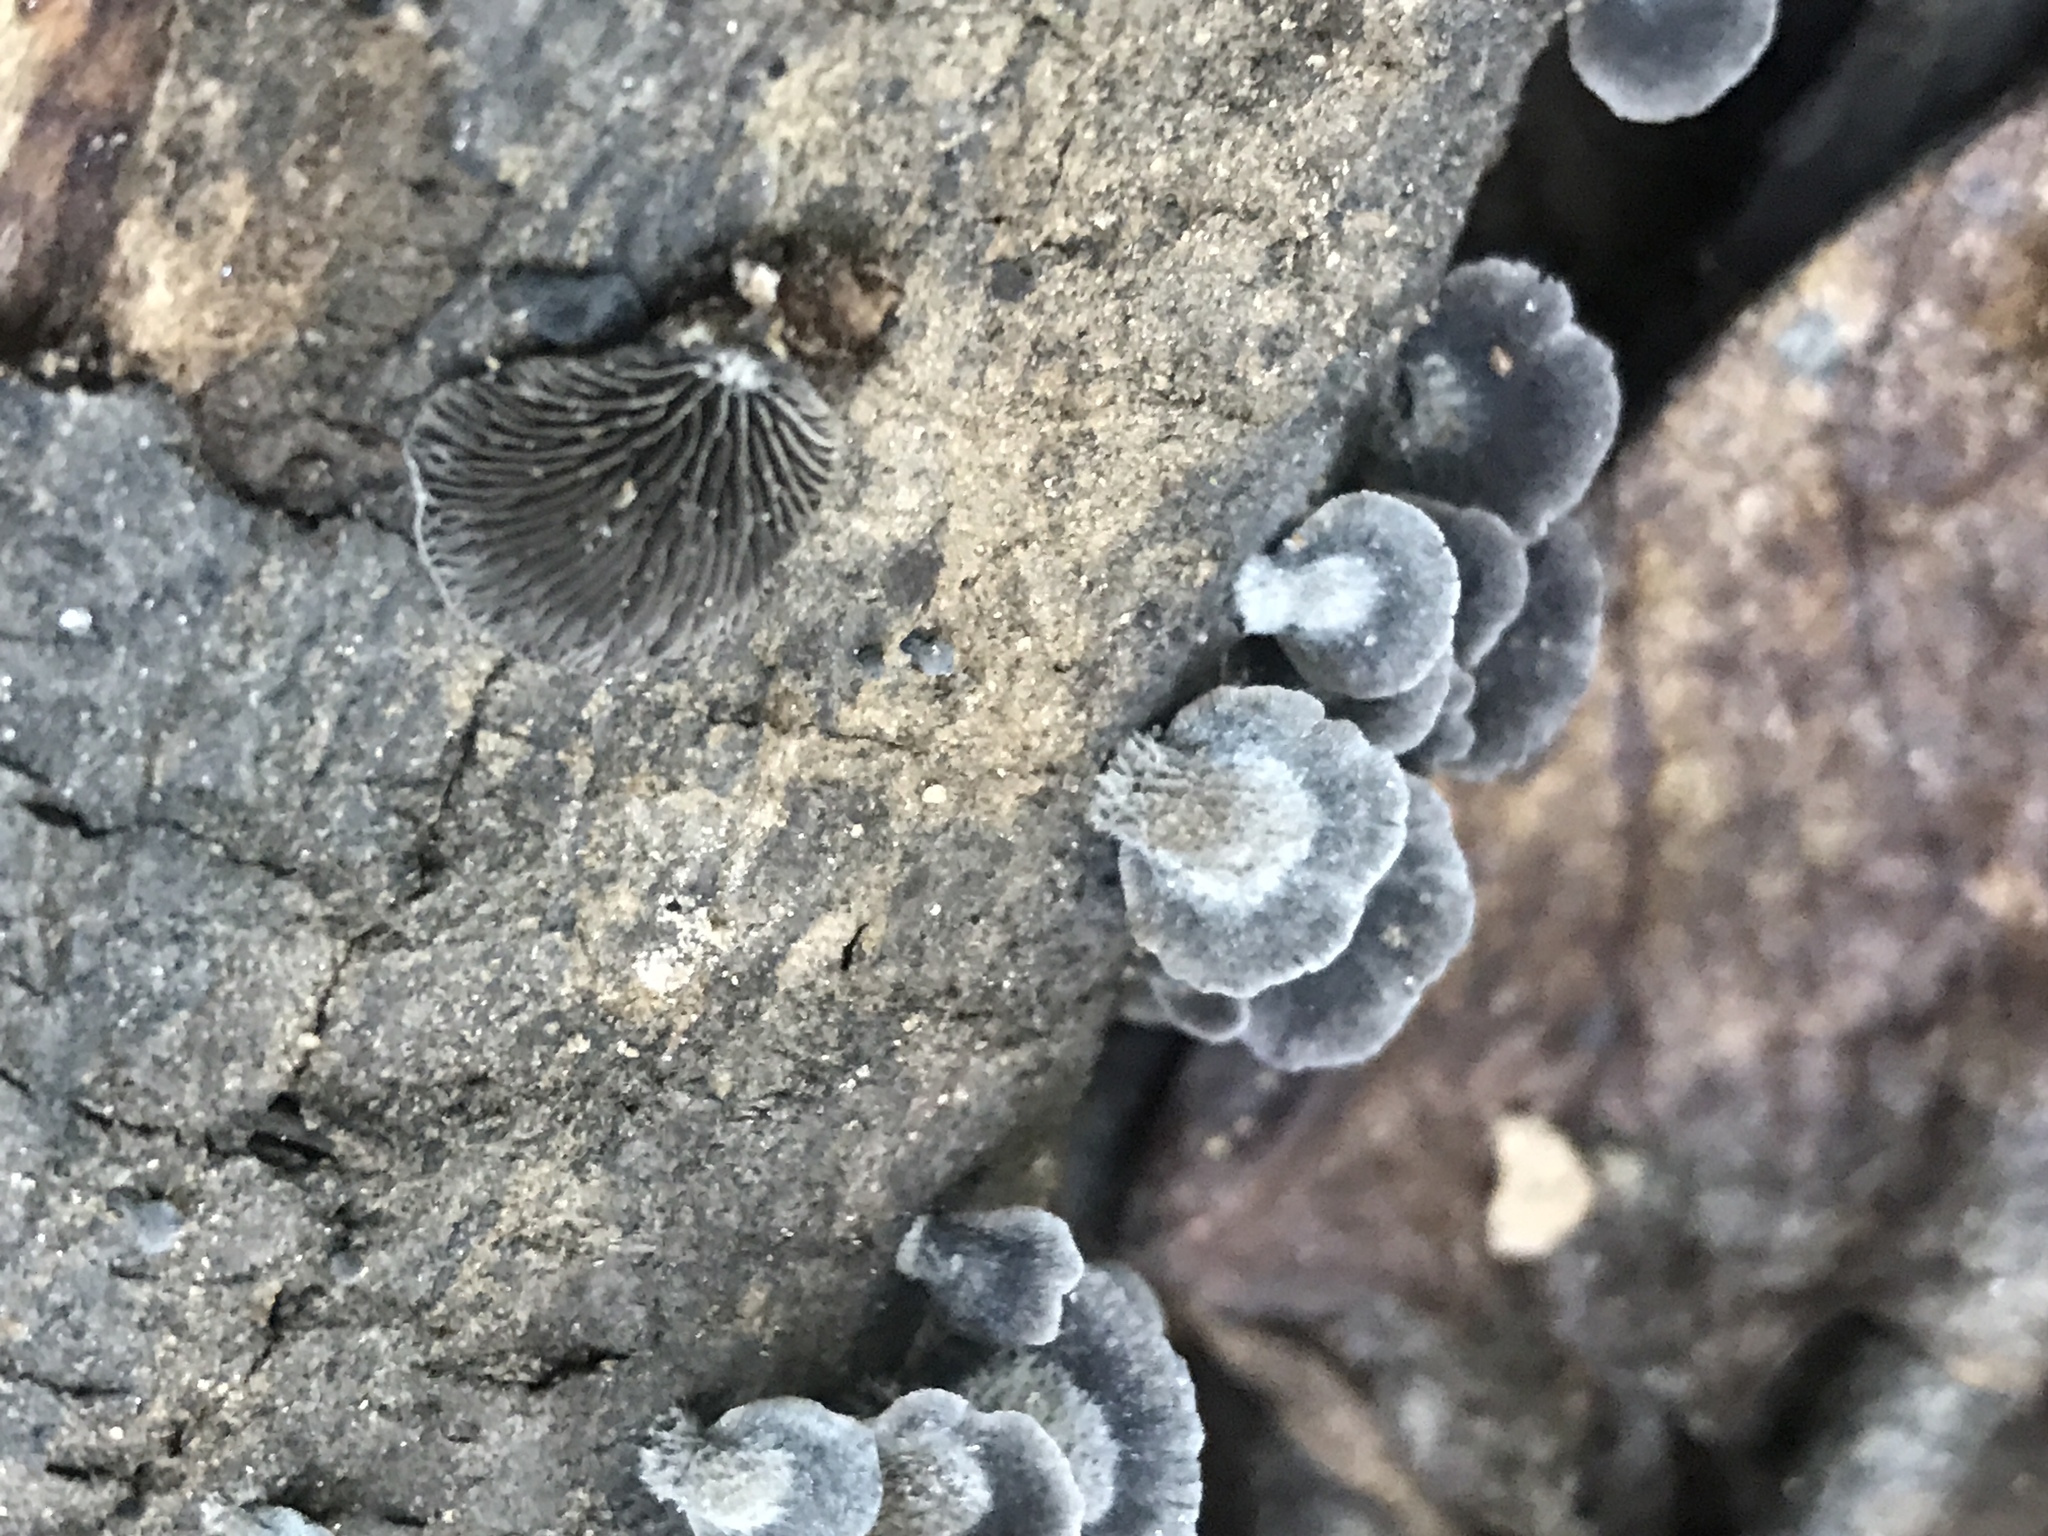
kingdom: Fungi
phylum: Basidiomycota
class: Agaricomycetes
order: Agaricales
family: Pleurotaceae
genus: Resupinatus
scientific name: Resupinatus applicatus
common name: Smoked oysterling
